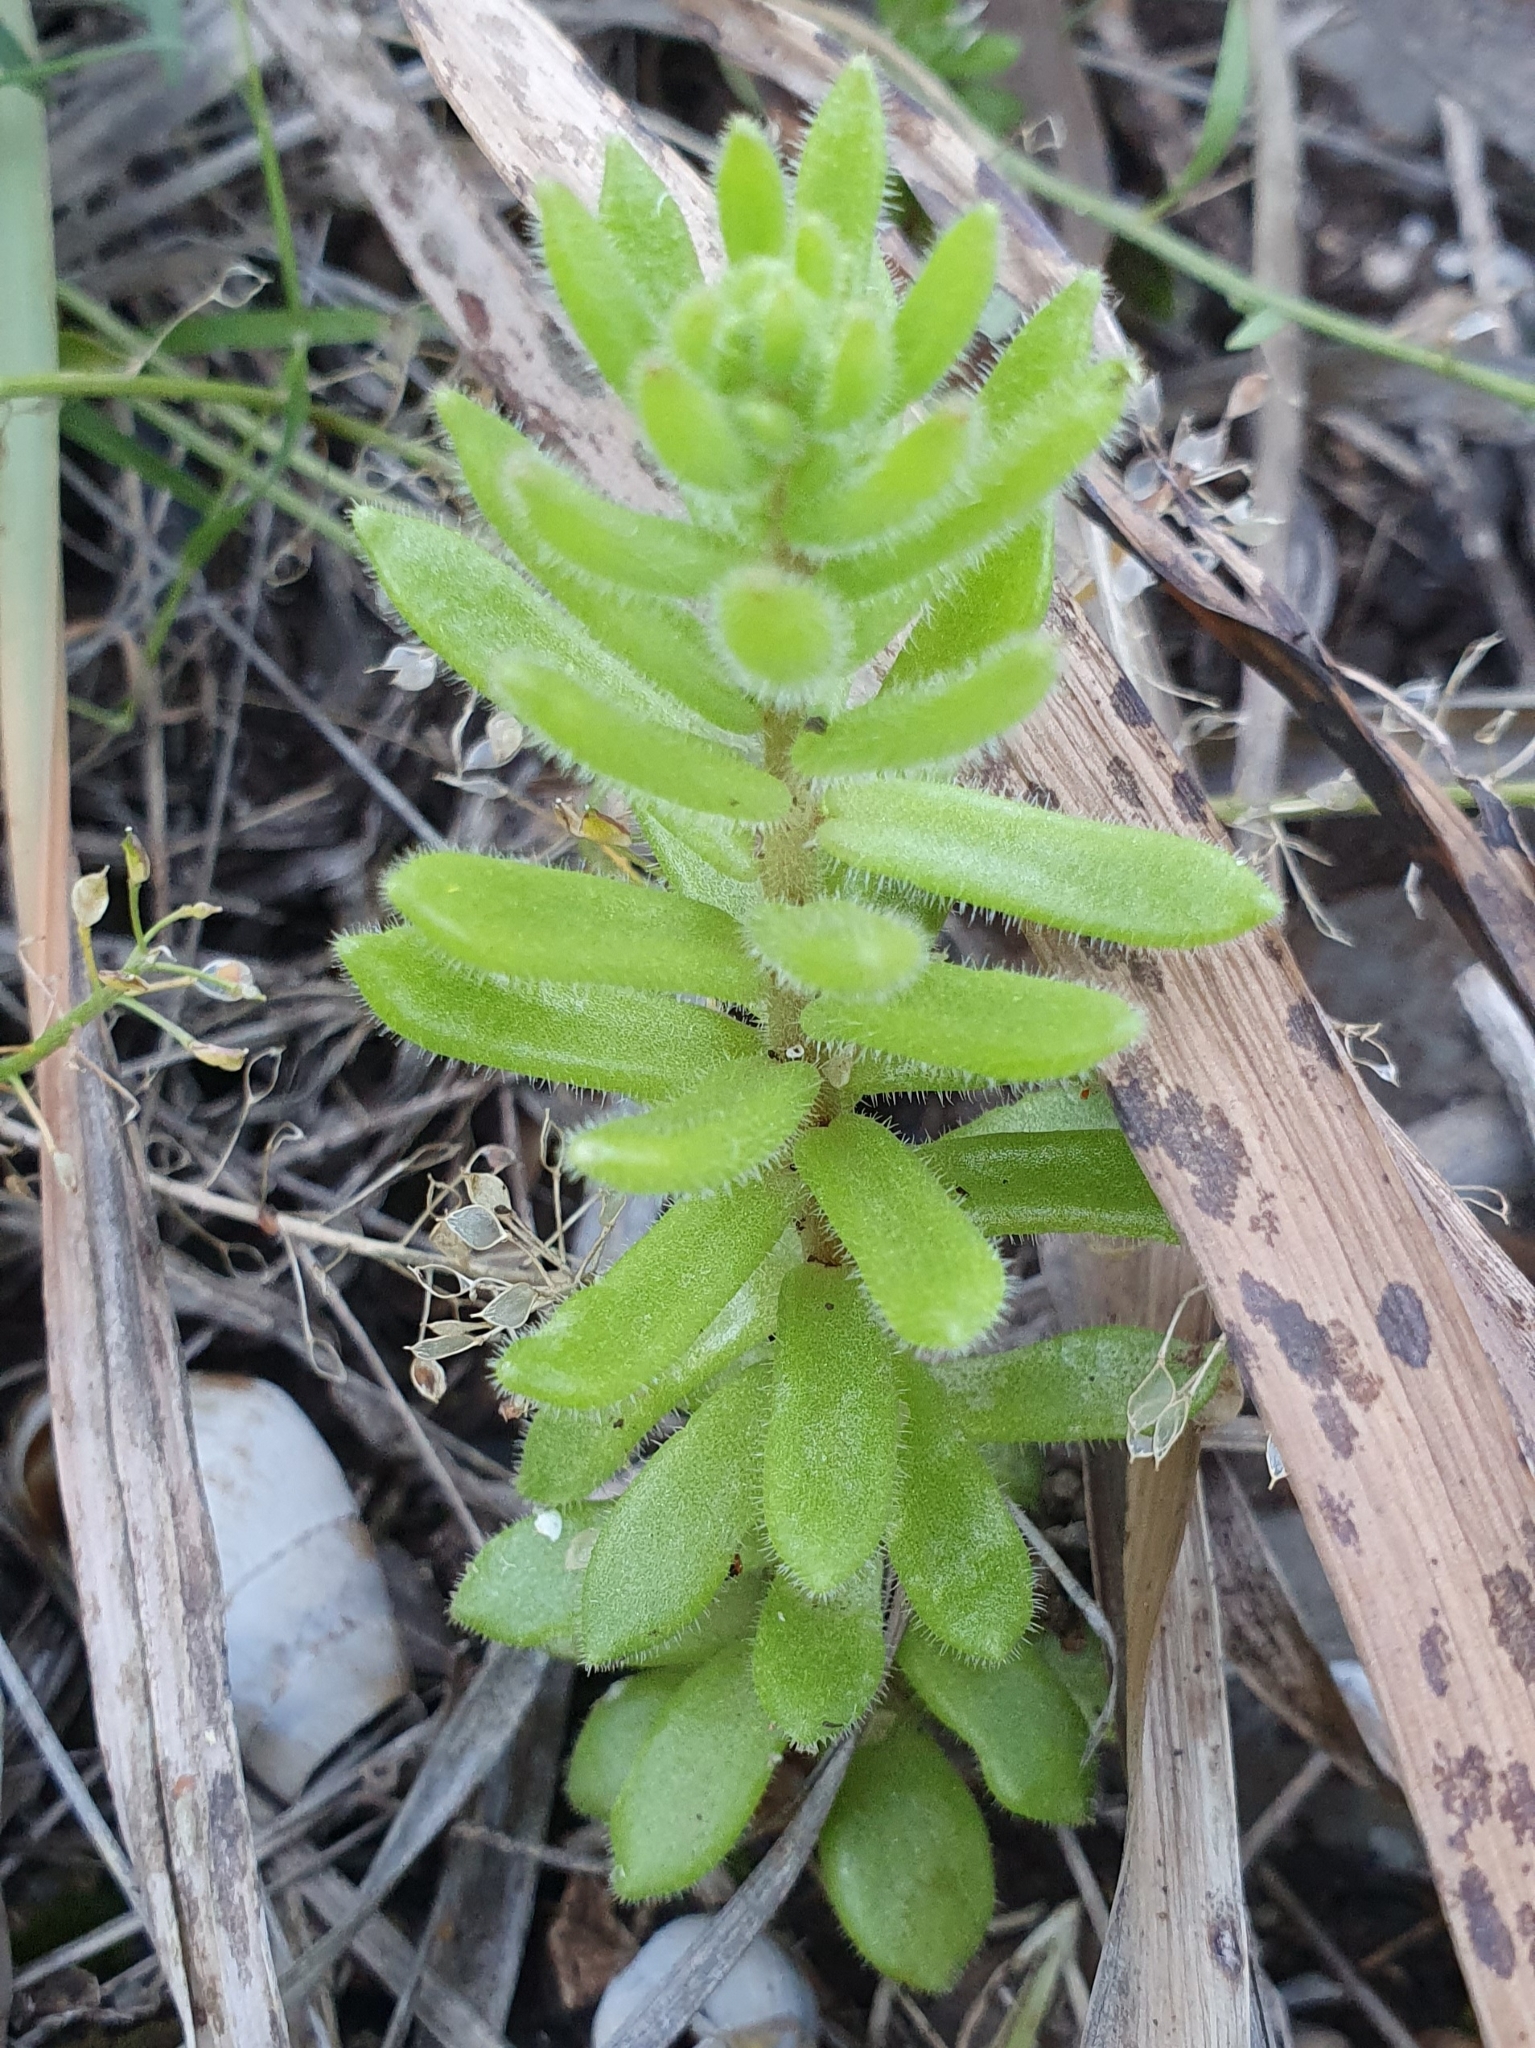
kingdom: Plantae
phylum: Tracheophyta
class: Magnoliopsida
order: Saxifragales
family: Crassulaceae
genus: Sedum
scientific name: Sedum pubescens
